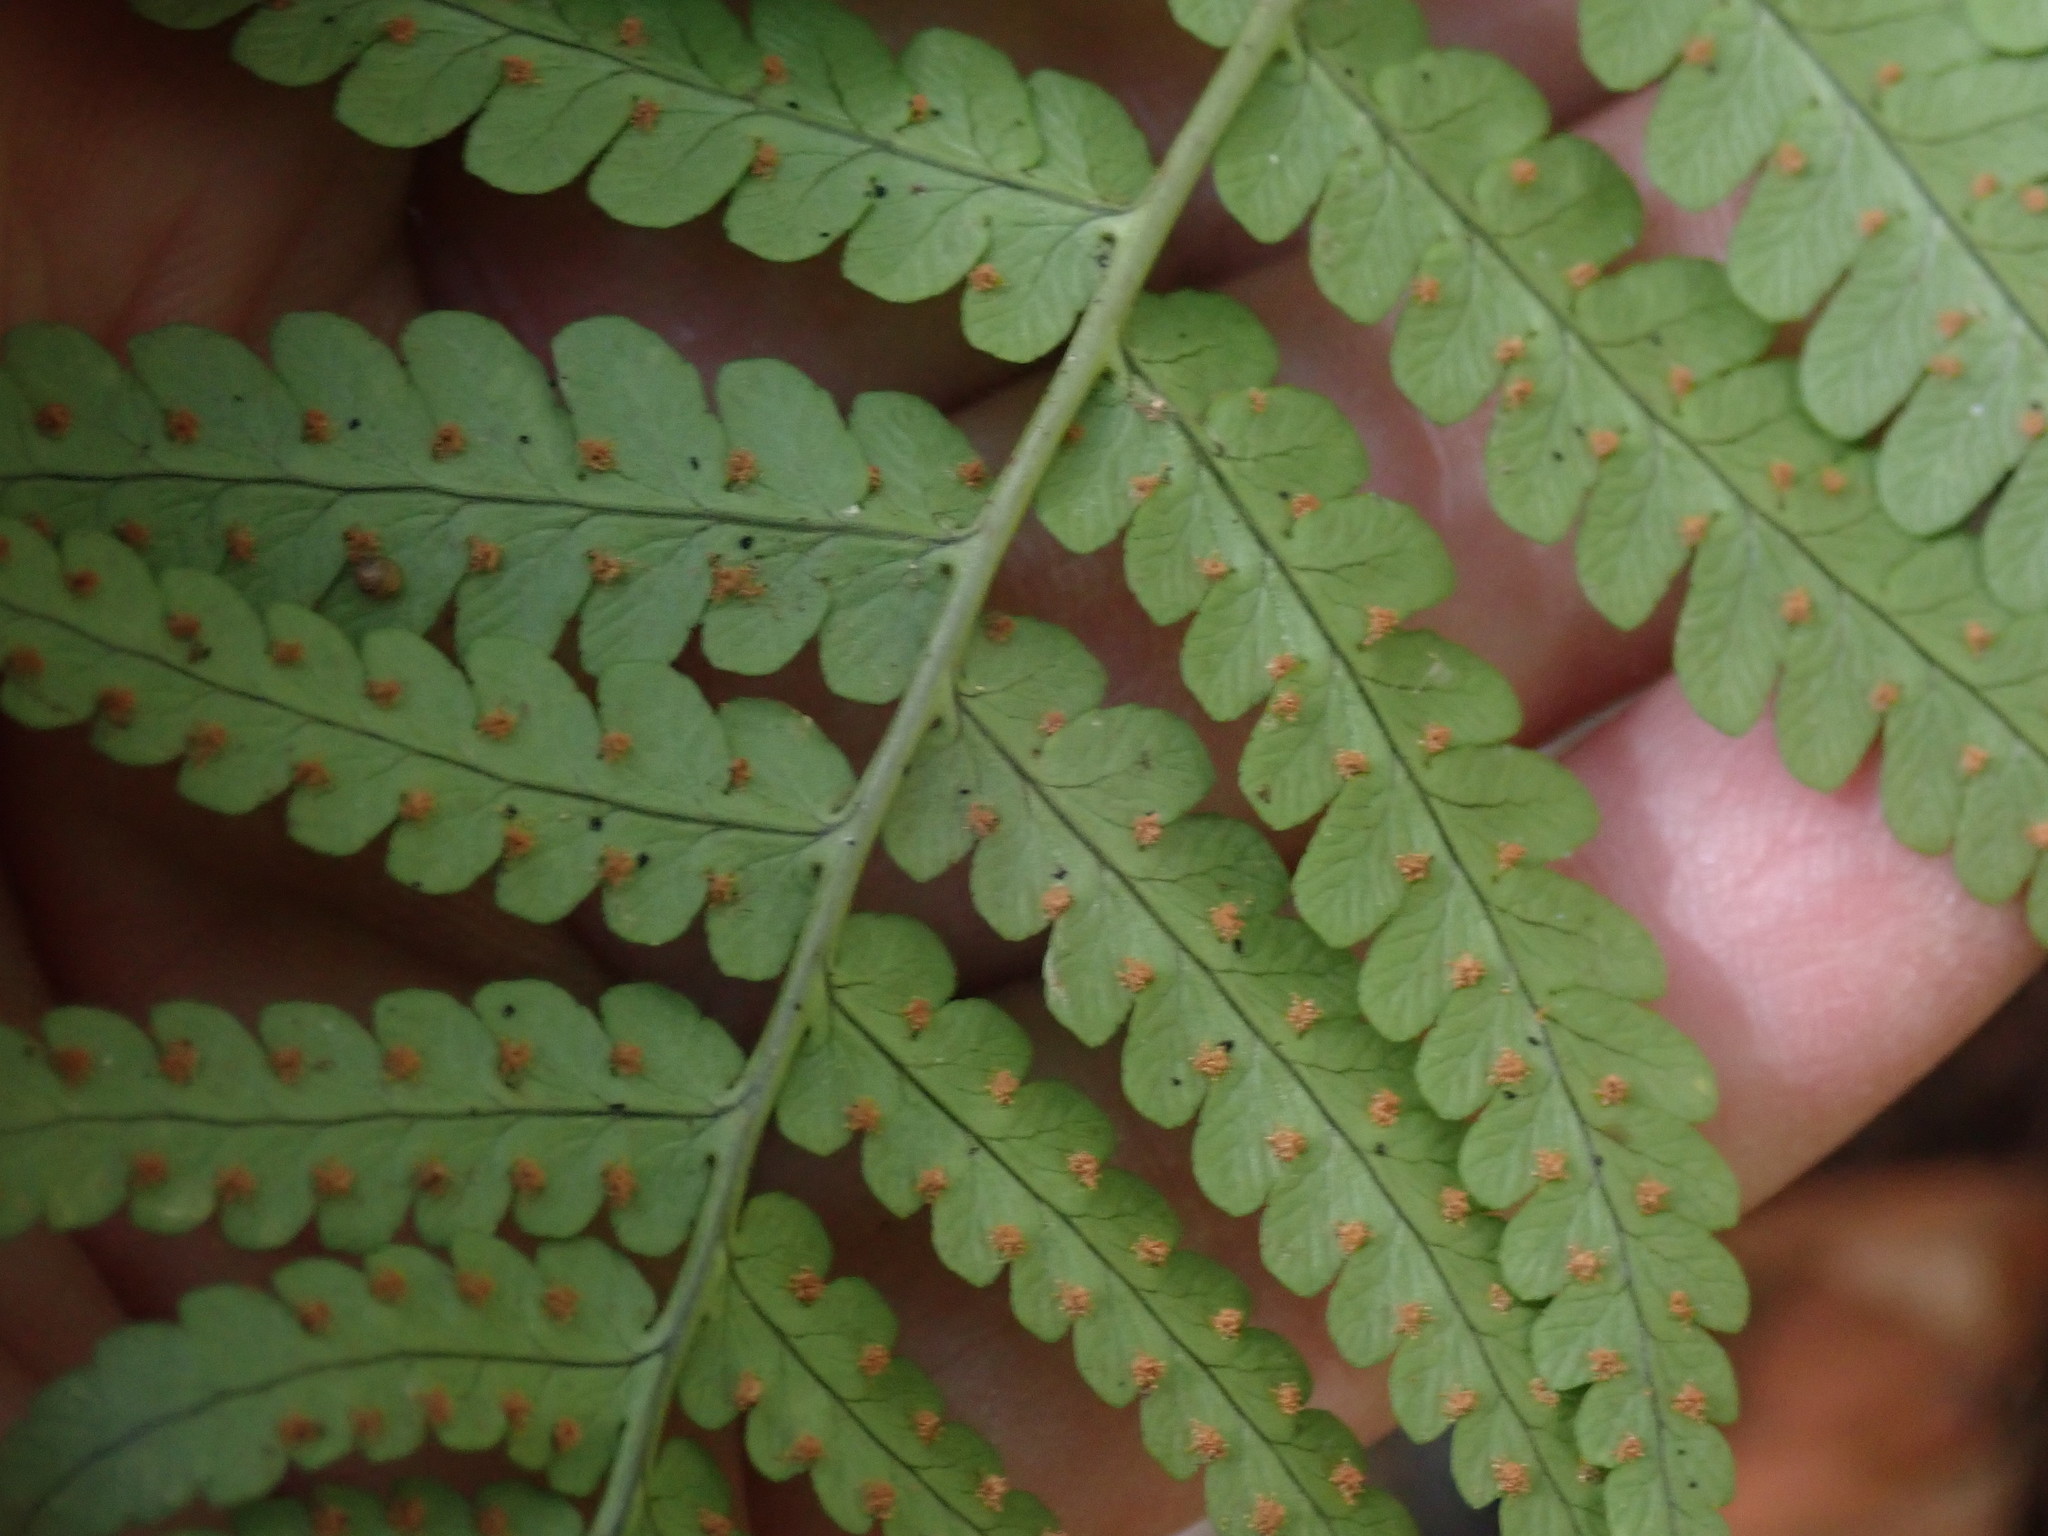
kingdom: Plantae
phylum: Tracheophyta
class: Polypodiopsida
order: Polypodiales
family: Dryopteridaceae
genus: Dryopteris
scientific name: Dryopteris marginalis
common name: Marginal wood fern
